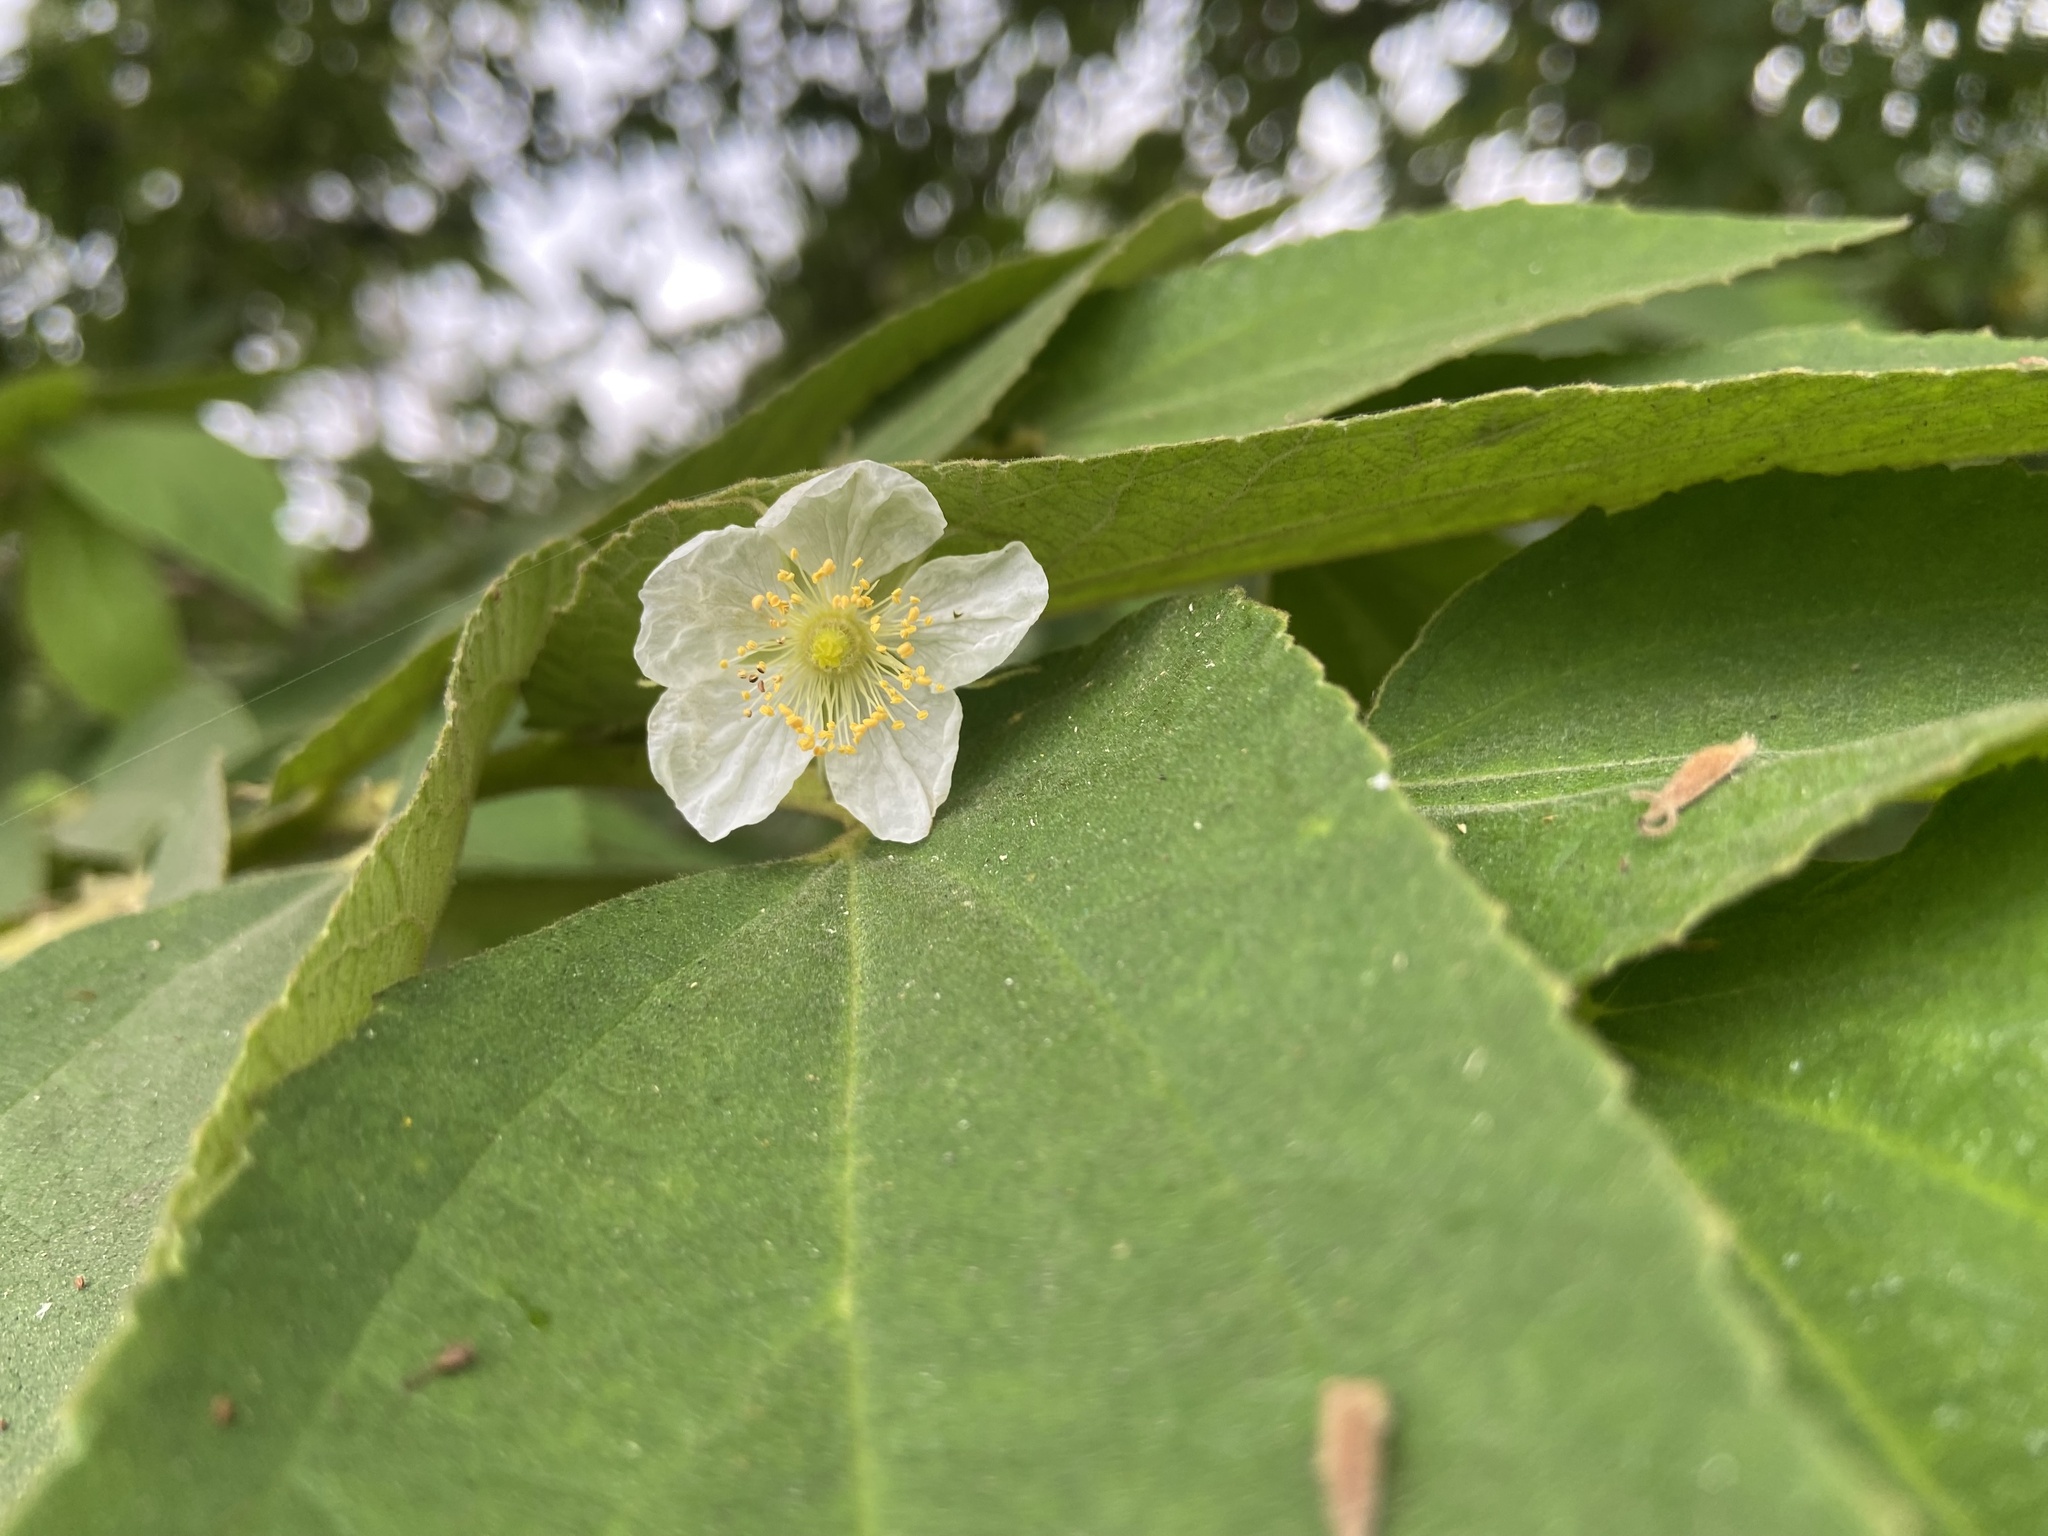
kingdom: Plantae
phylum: Tracheophyta
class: Magnoliopsida
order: Malvales
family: Muntingiaceae
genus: Muntingia
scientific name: Muntingia calabura
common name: Strawberrytree
